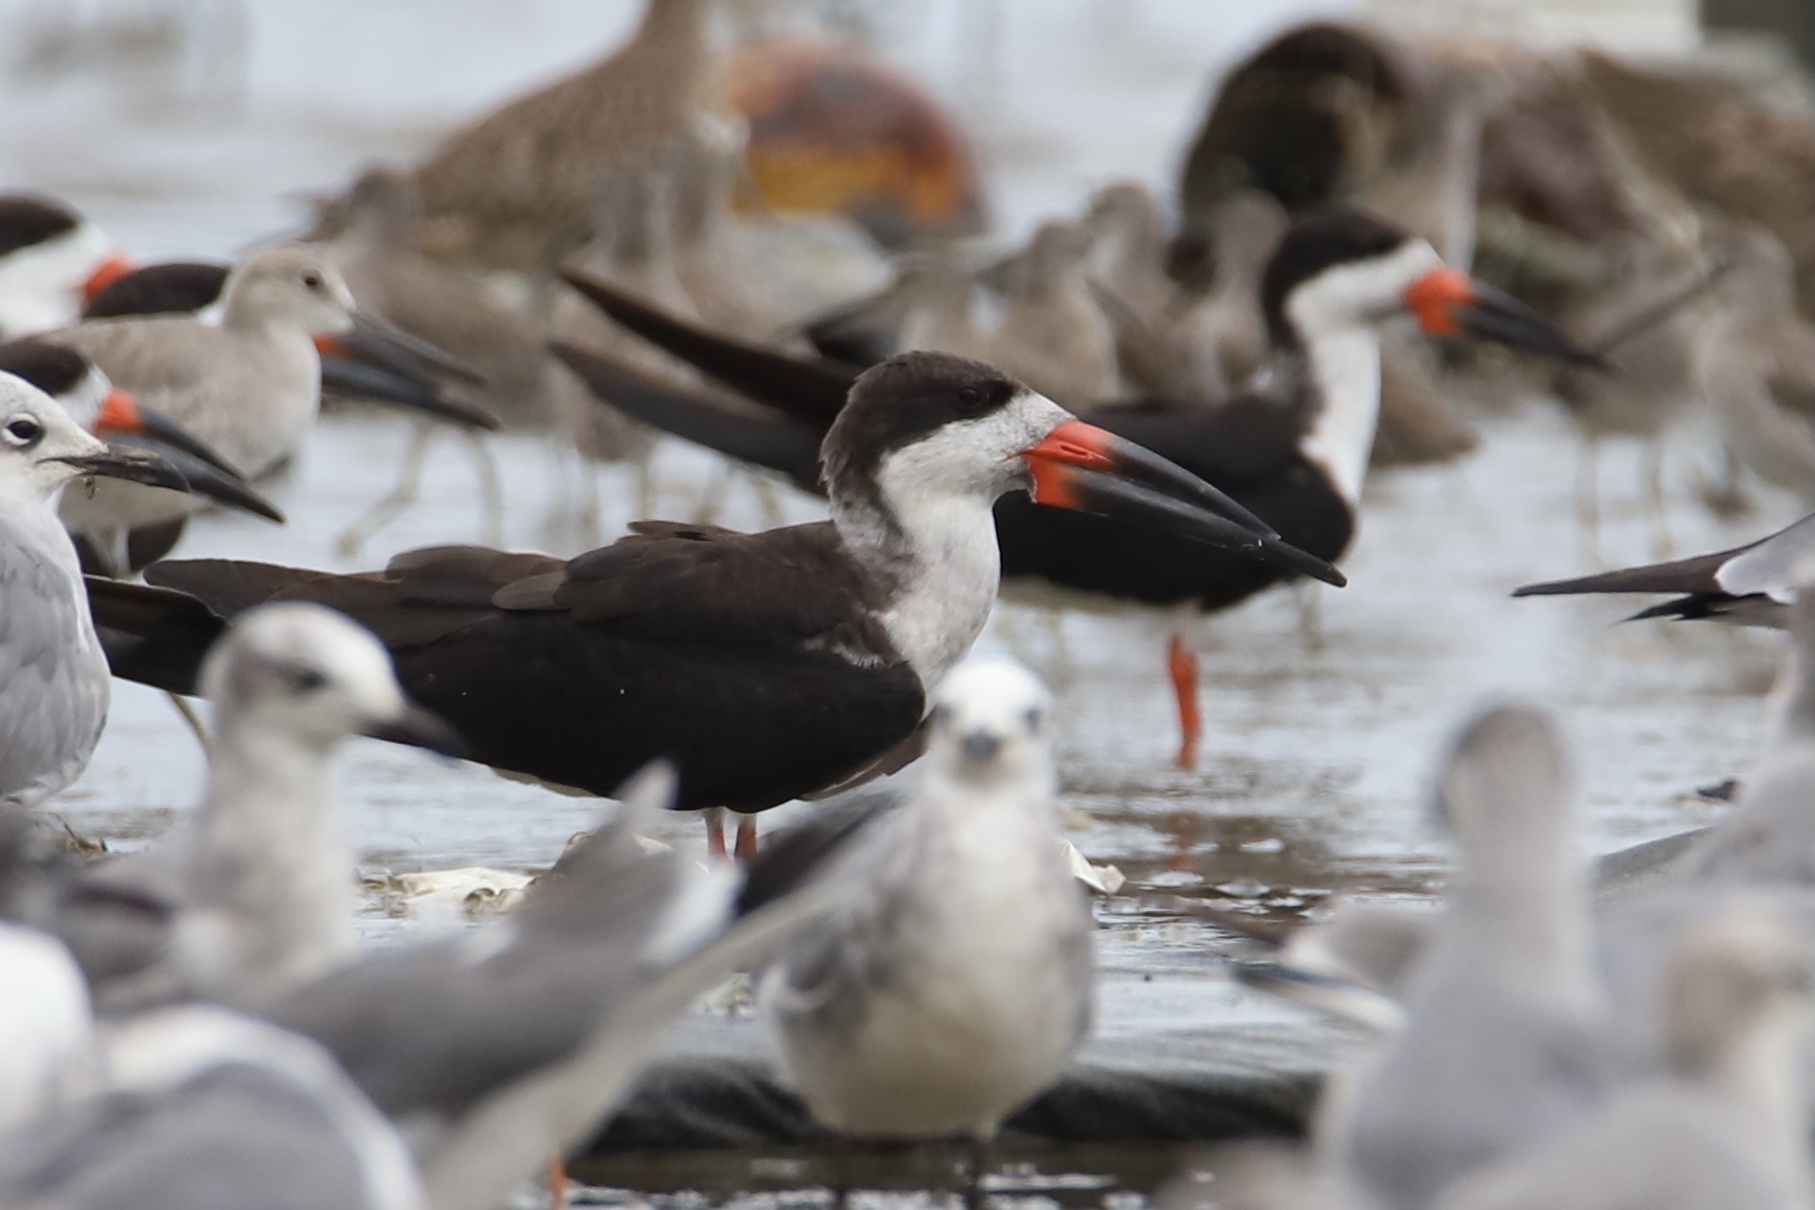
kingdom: Animalia
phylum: Chordata
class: Aves
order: Charadriiformes
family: Laridae
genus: Rynchops
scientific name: Rynchops niger
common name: Black skimmer
